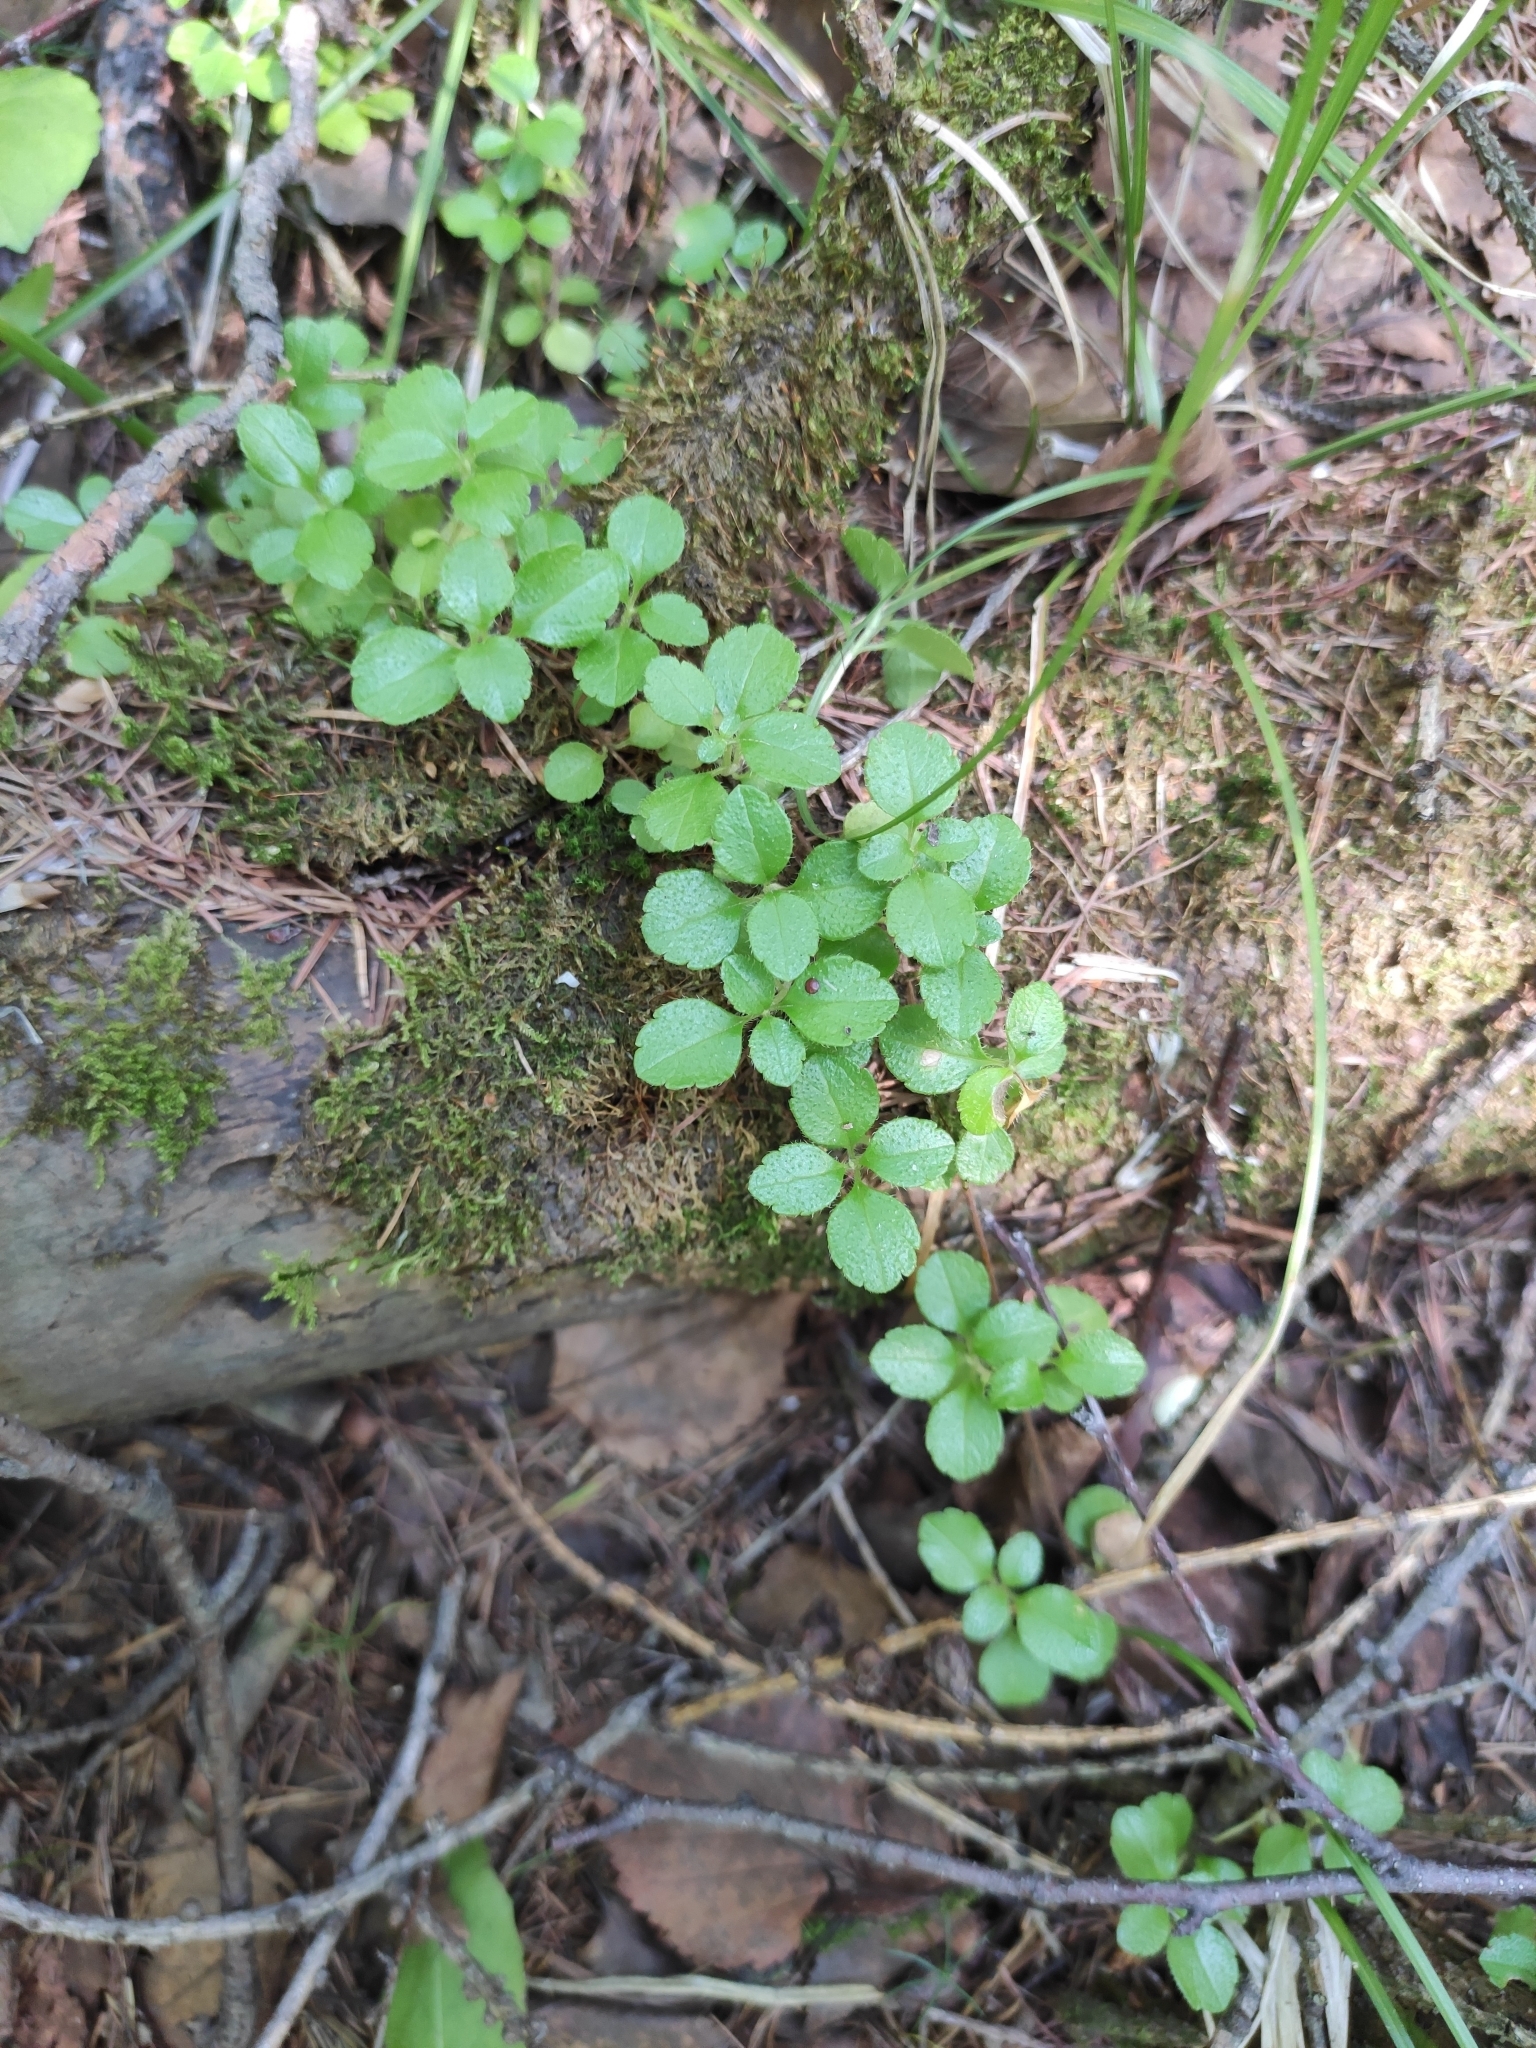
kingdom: Plantae
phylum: Tracheophyta
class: Magnoliopsida
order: Dipsacales
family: Caprifoliaceae
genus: Linnaea
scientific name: Linnaea borealis
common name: Twinflower
